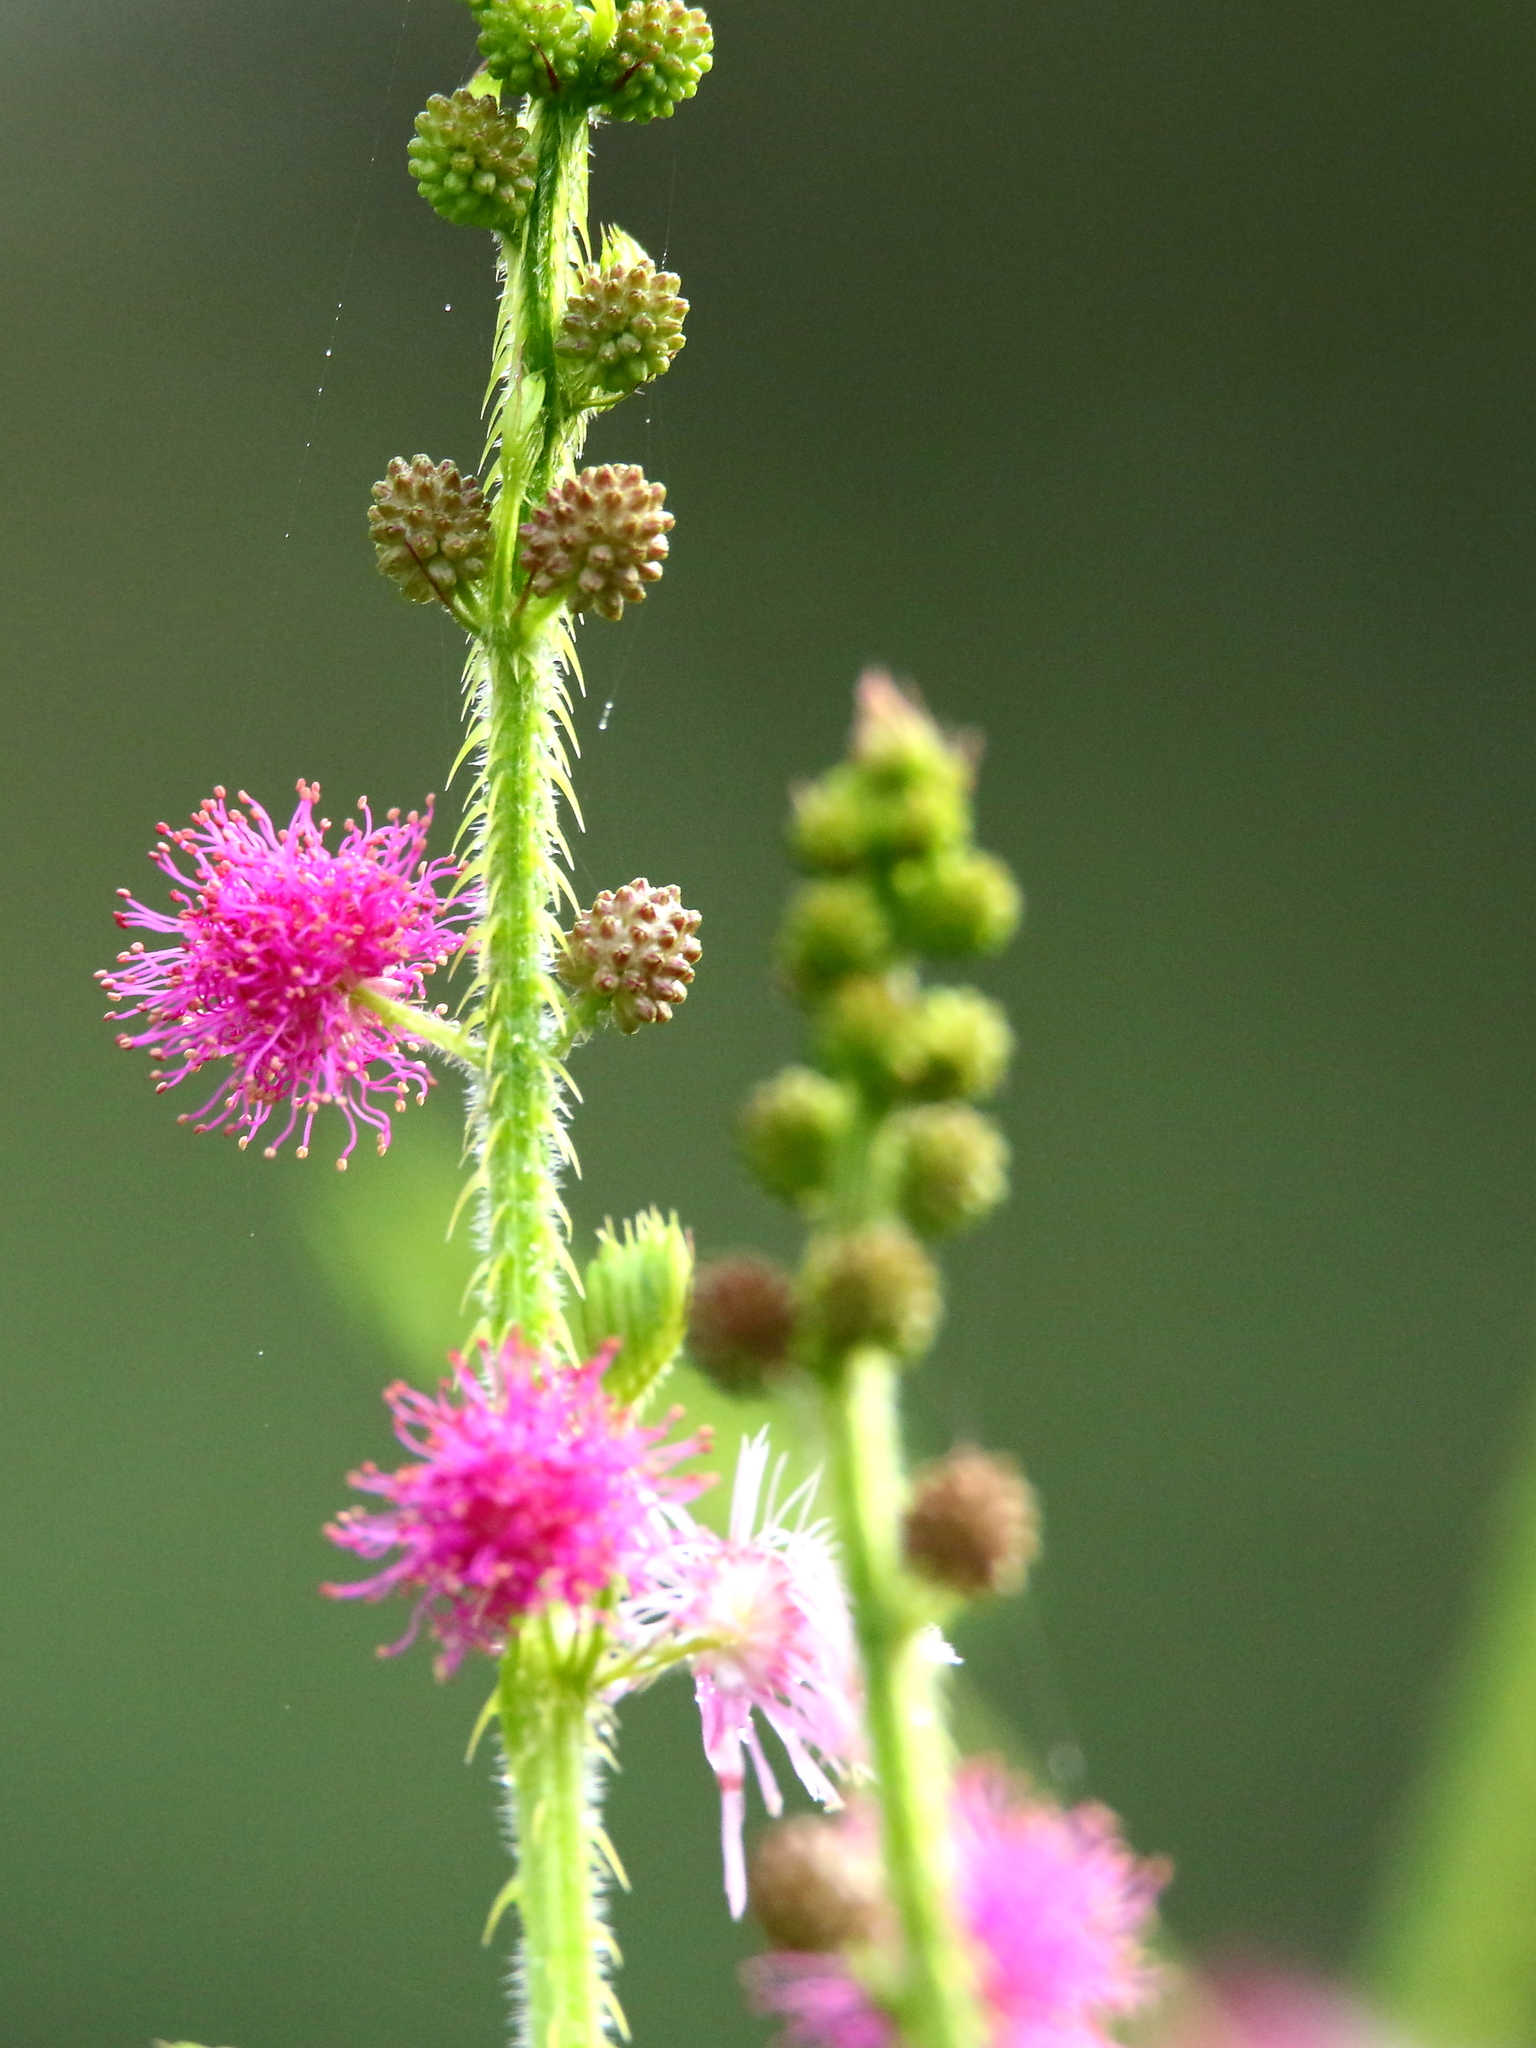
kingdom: Plantae
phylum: Tracheophyta
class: Magnoliopsida
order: Fabales
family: Fabaceae
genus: Mimosa
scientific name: Mimosa pudica
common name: Sensitive plant
